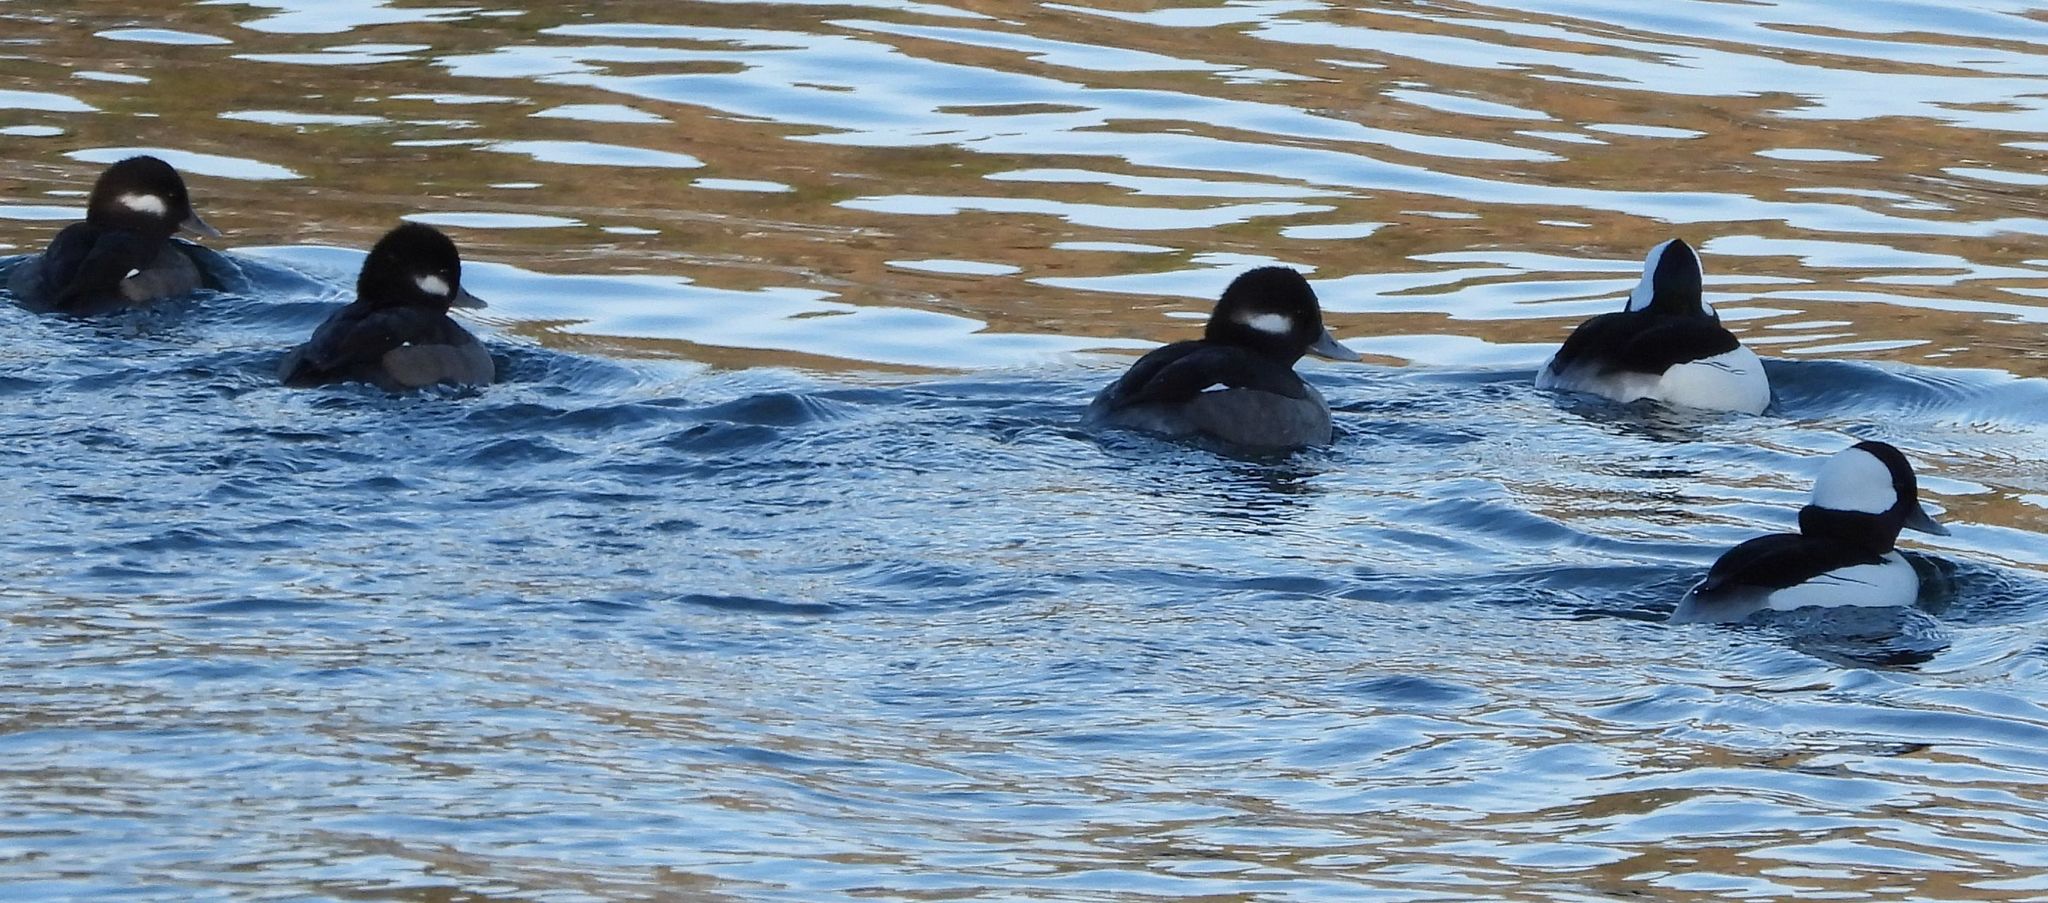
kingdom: Animalia
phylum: Chordata
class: Aves
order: Anseriformes
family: Anatidae
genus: Bucephala
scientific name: Bucephala albeola
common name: Bufflehead
